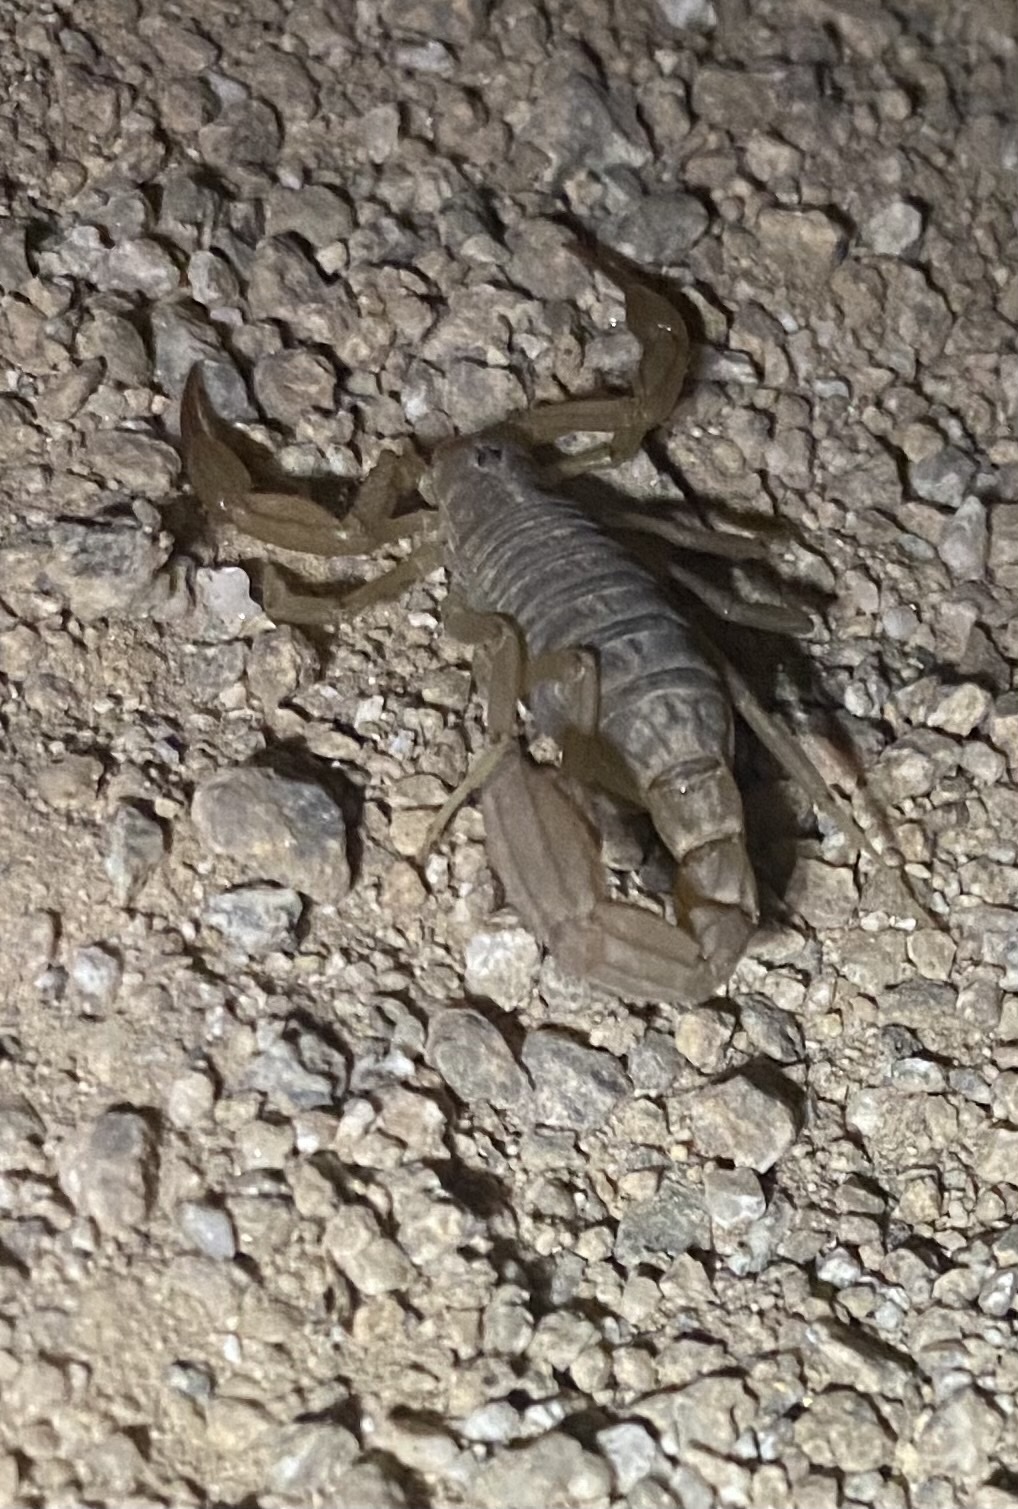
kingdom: Animalia
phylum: Arthropoda
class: Arachnida
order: Scorpiones
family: Vaejovidae
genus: Paravaejovis
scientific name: Paravaejovis spinigerus
